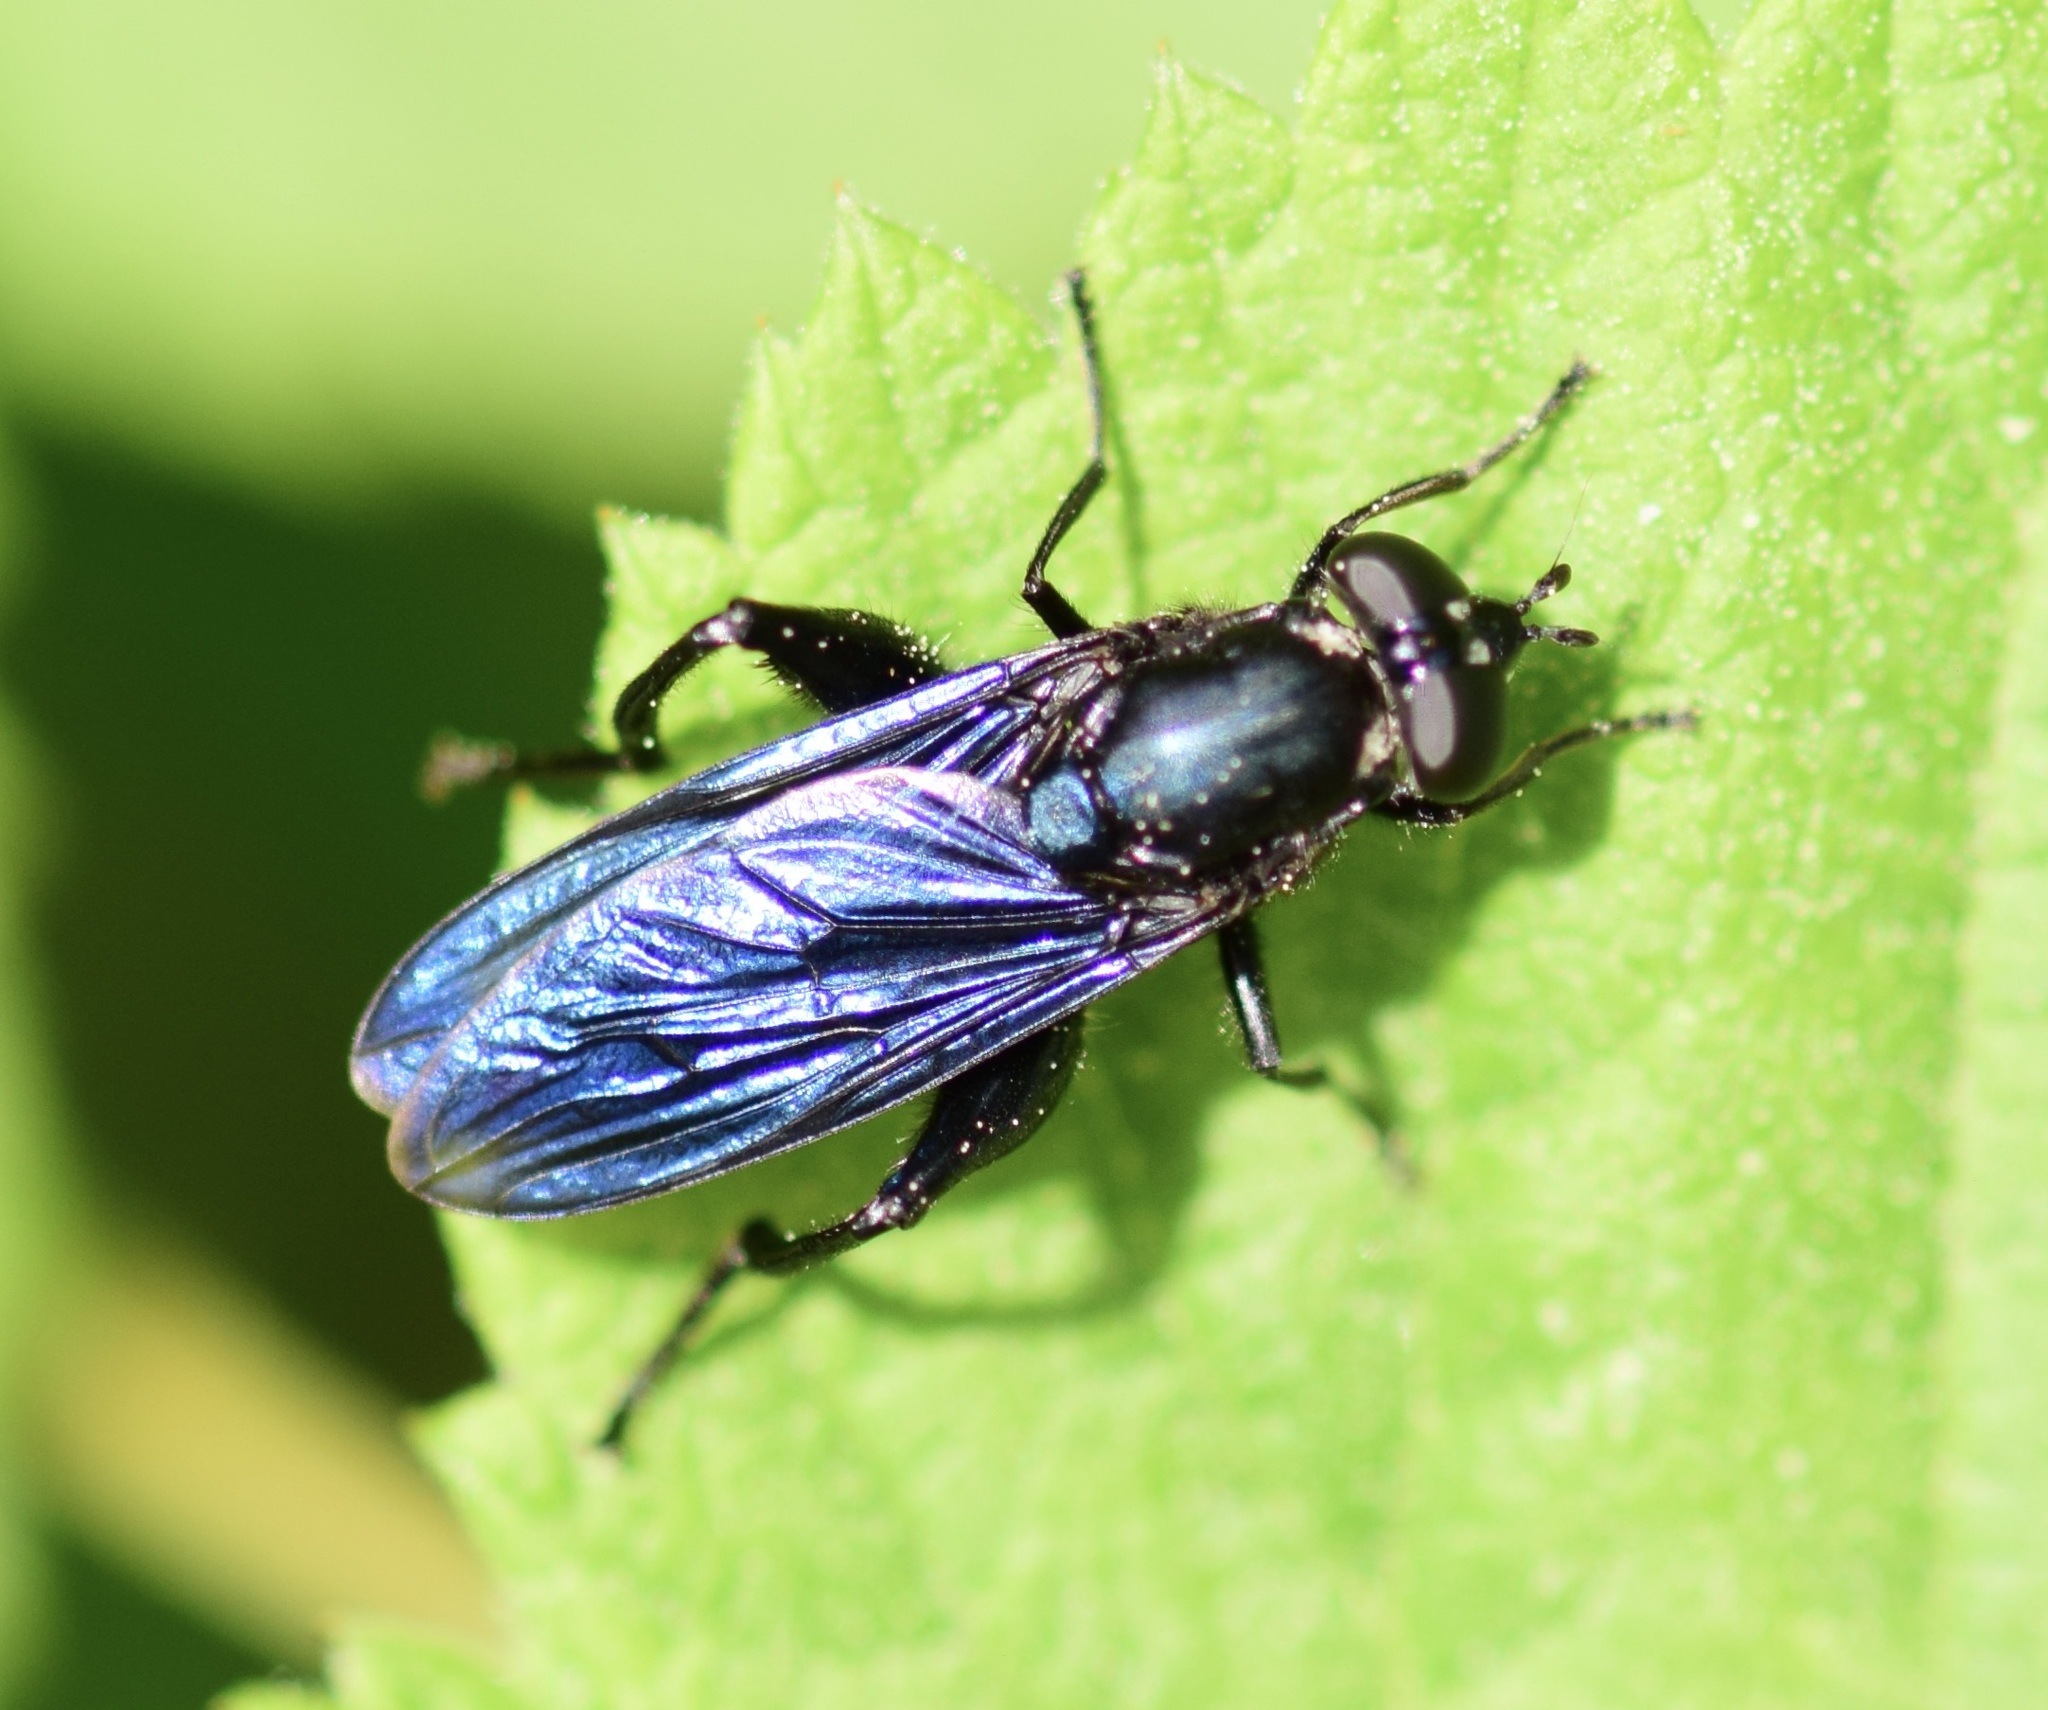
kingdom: Animalia
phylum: Arthropoda
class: Insecta
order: Diptera
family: Syrphidae
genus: Chalcosyrphus
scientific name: Chalcosyrphus chalybeus
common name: Violet leafwalker
